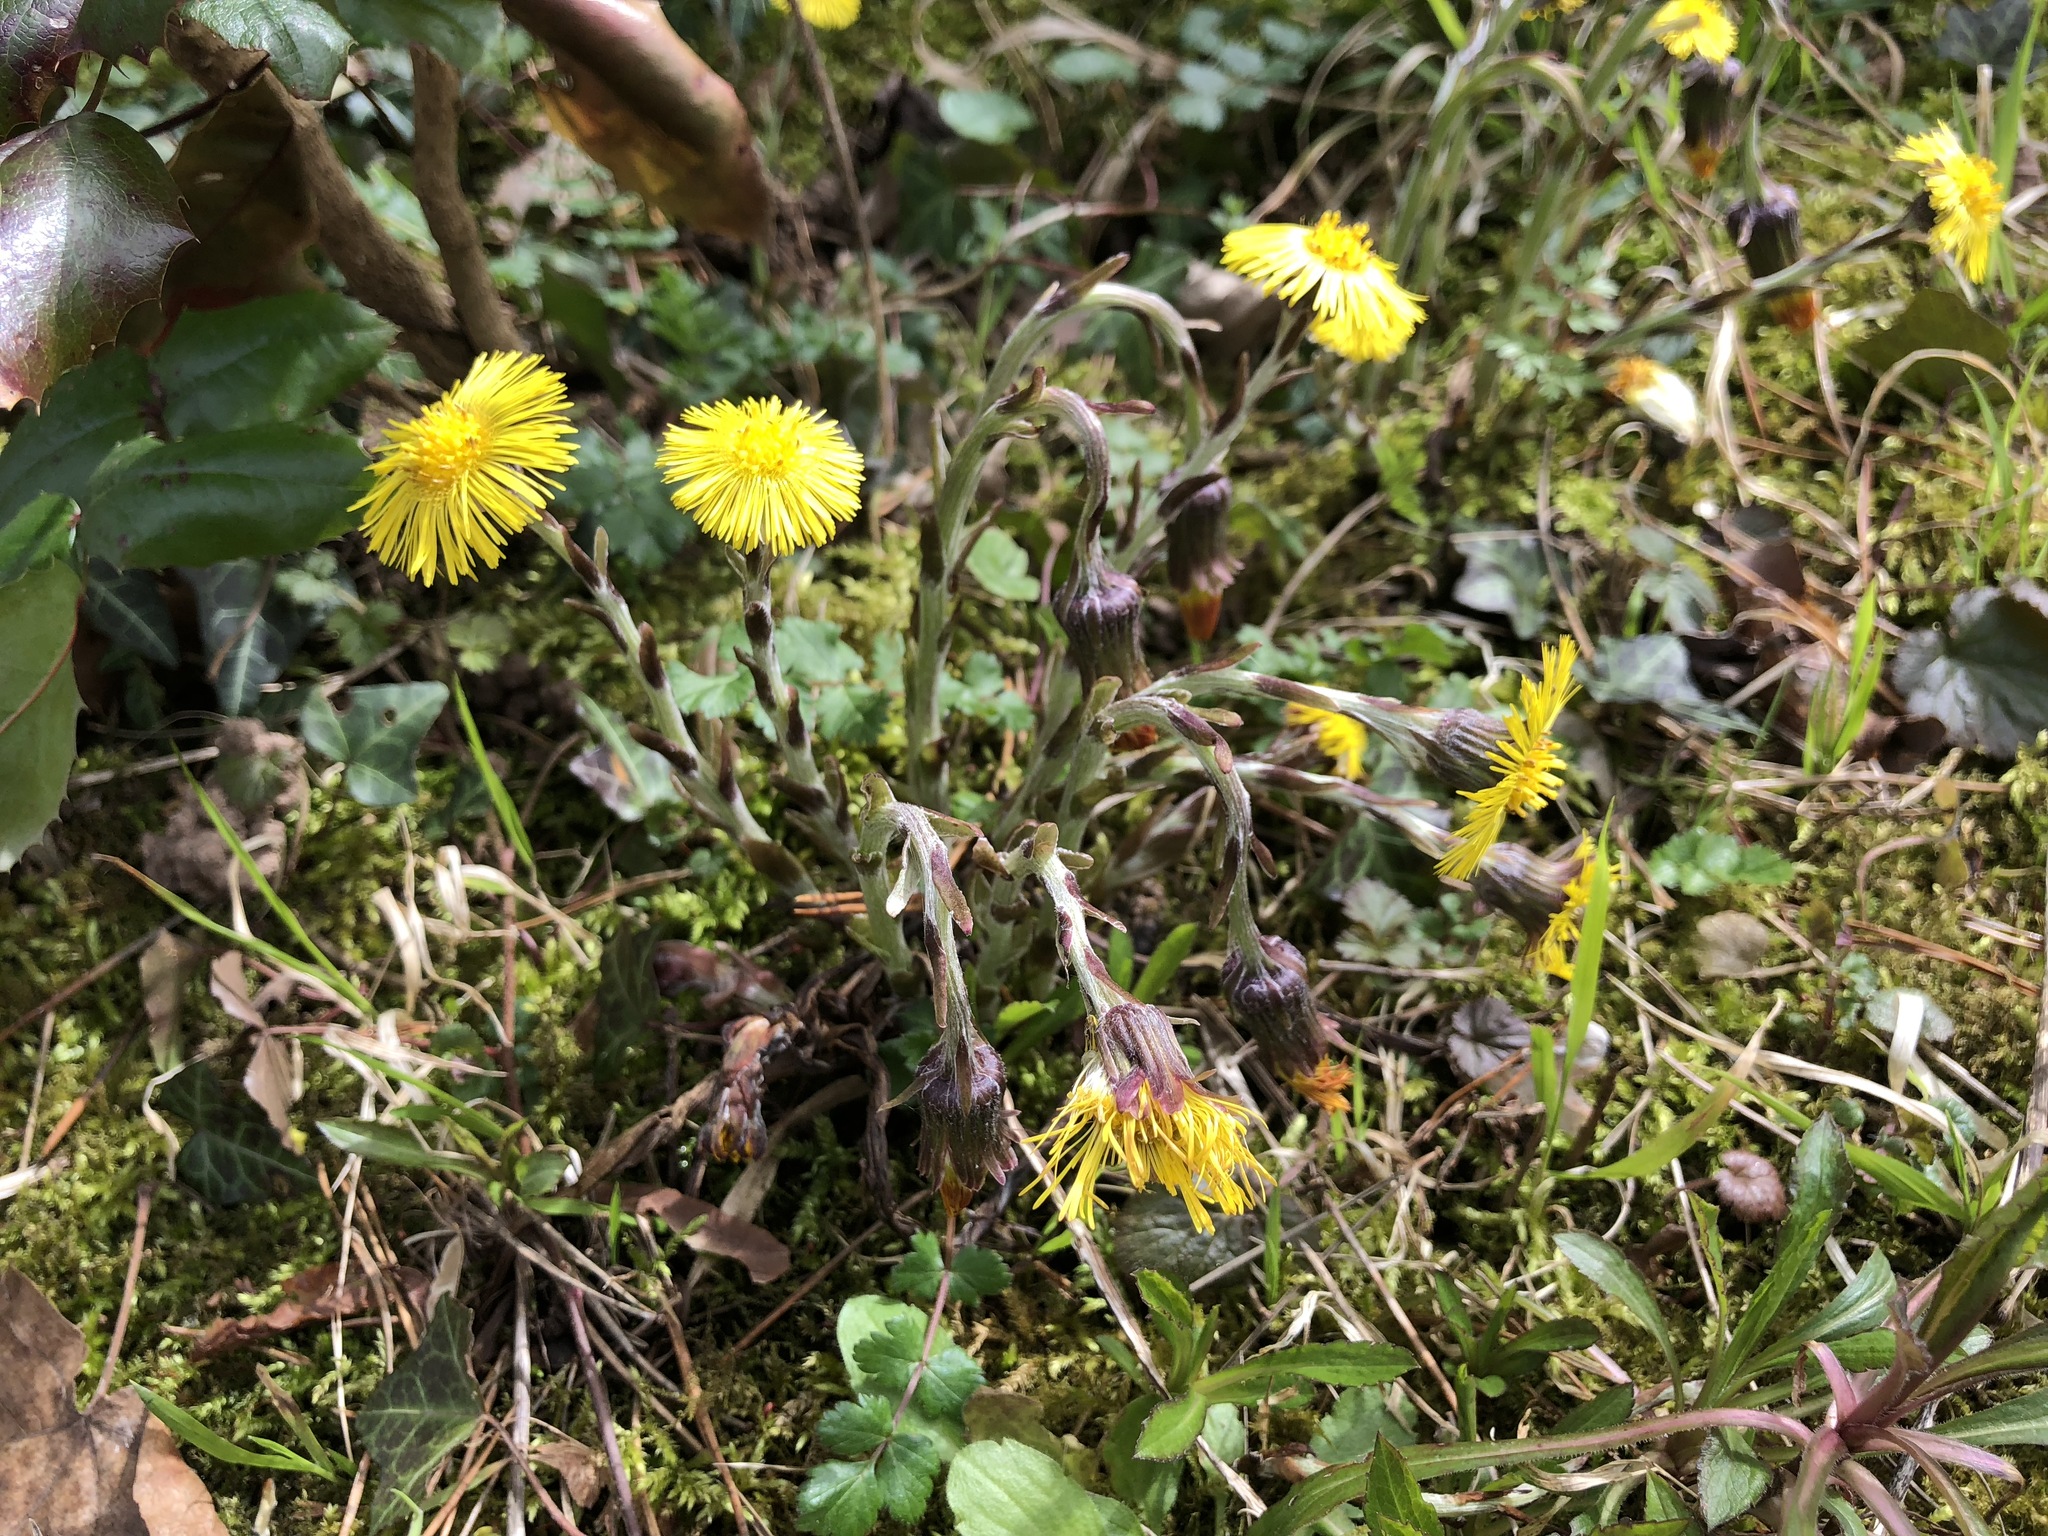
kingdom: Plantae
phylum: Tracheophyta
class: Magnoliopsida
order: Asterales
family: Asteraceae
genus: Tussilago
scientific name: Tussilago farfara
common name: Coltsfoot
